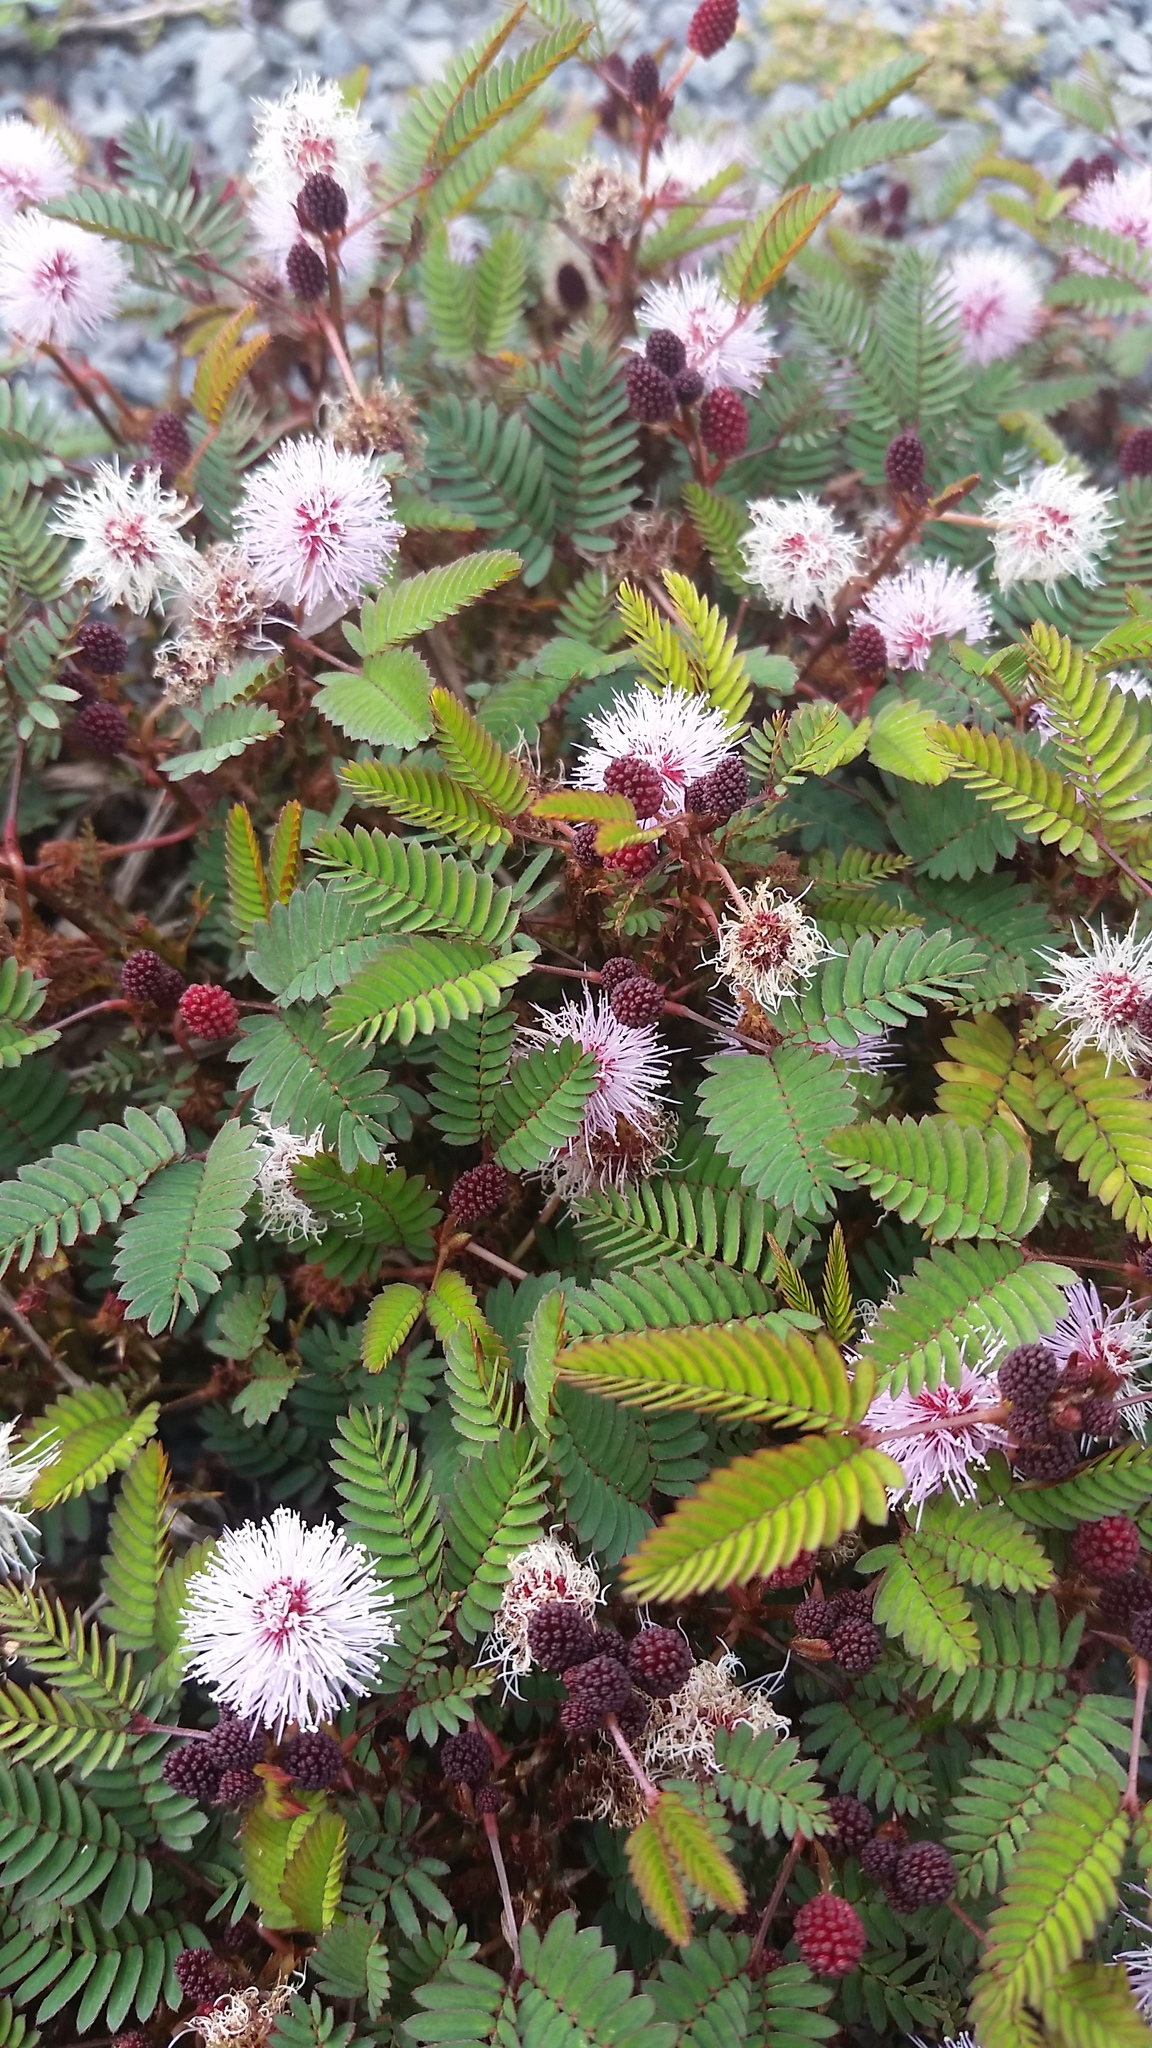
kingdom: Plantae
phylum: Tracheophyta
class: Magnoliopsida
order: Fabales
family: Fabaceae
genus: Mimosa
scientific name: Mimosa pudica
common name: Sensitive plant
